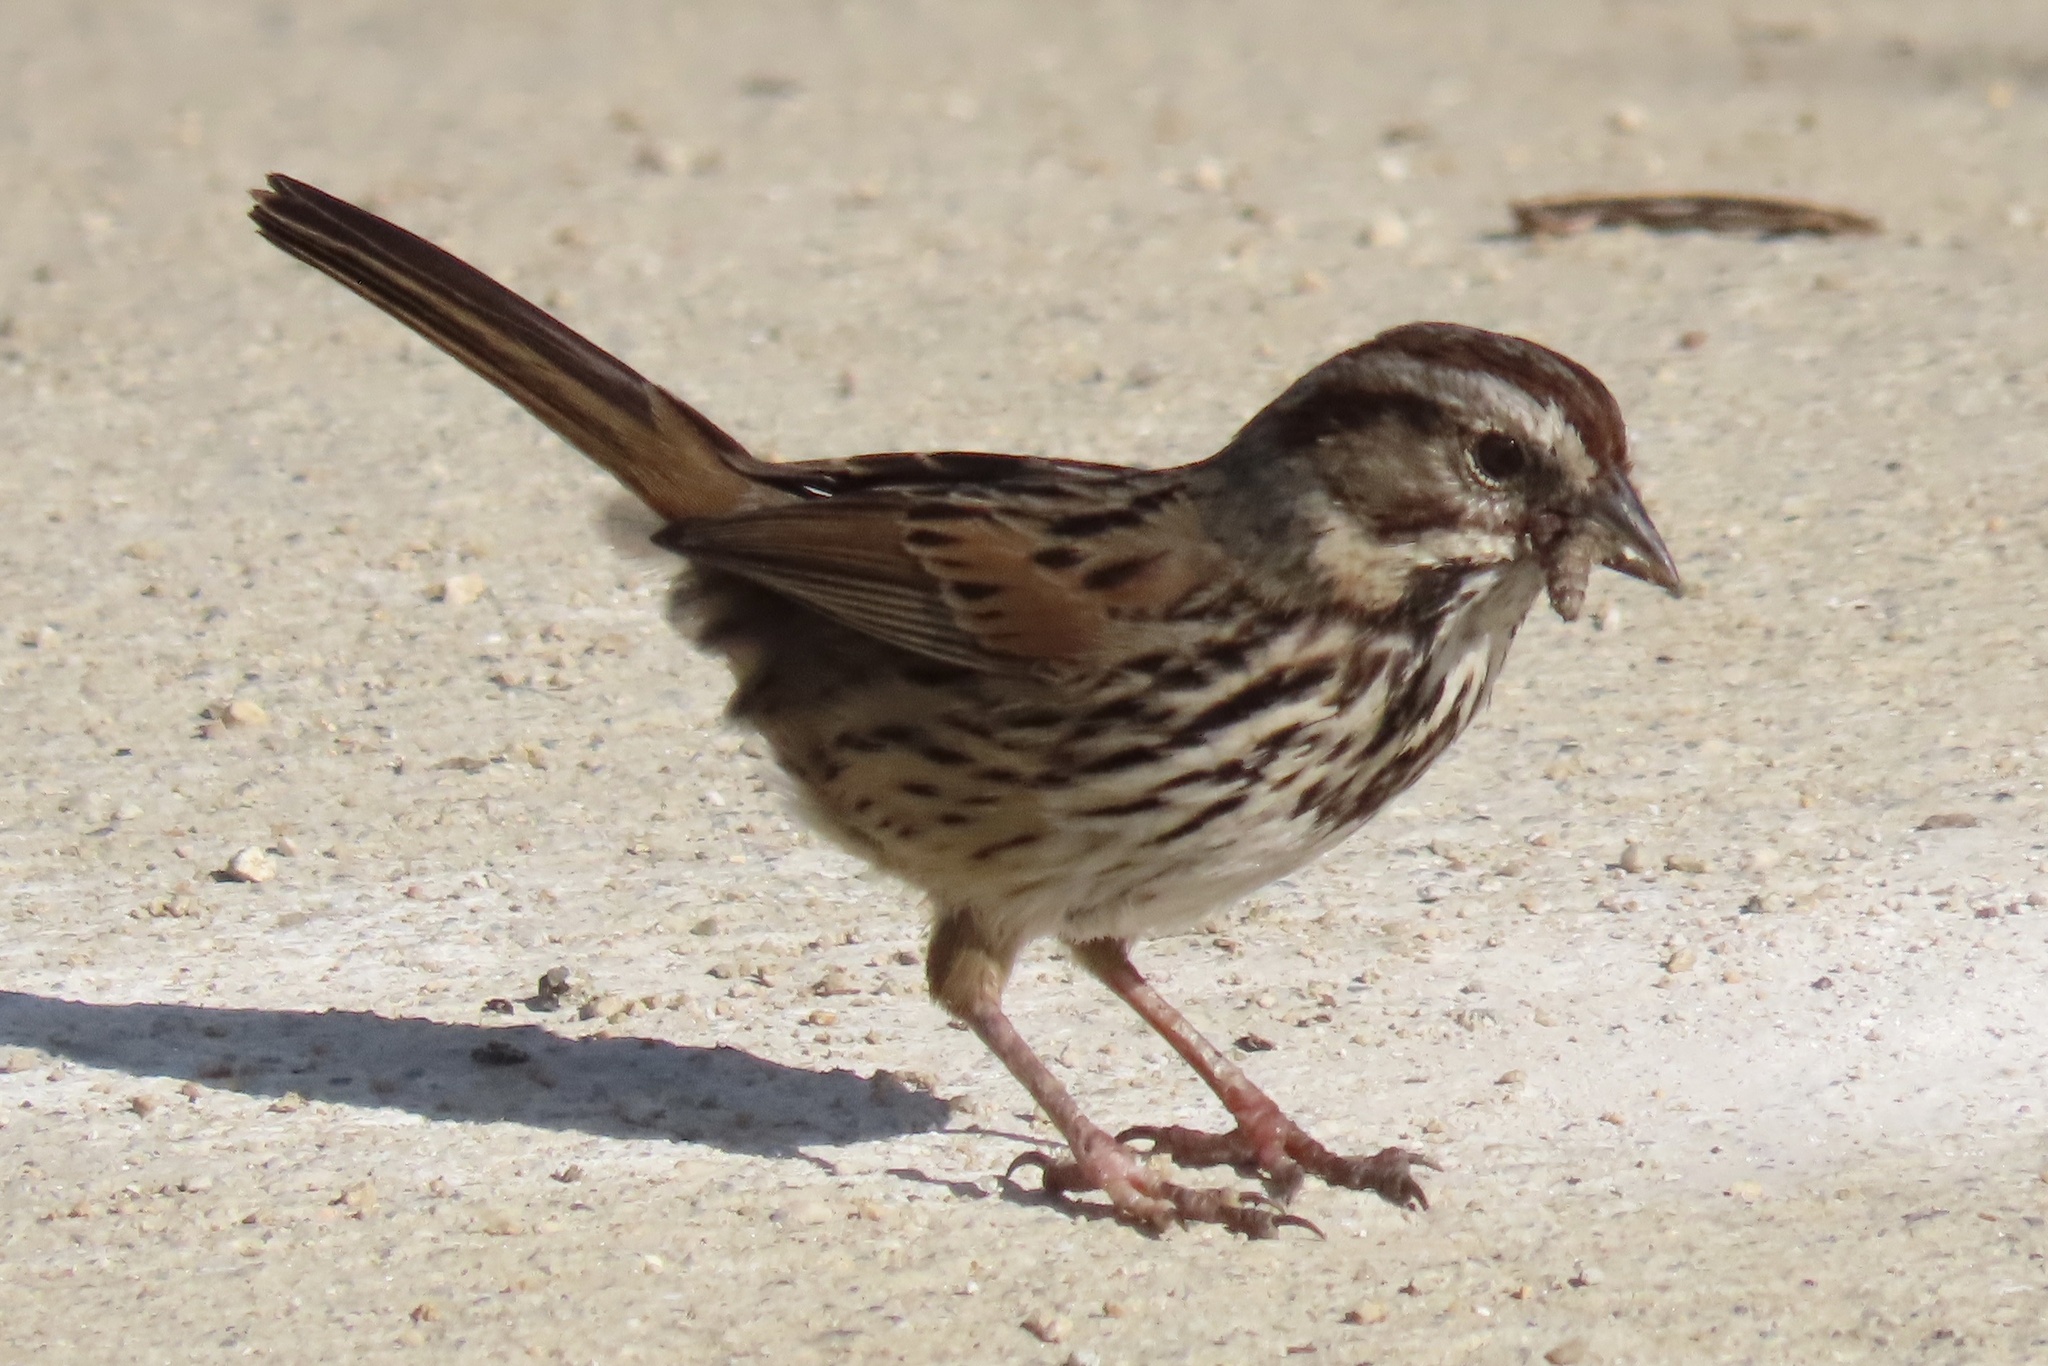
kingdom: Animalia
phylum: Chordata
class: Aves
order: Passeriformes
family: Passerellidae
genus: Melospiza
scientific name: Melospiza melodia
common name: Song sparrow
